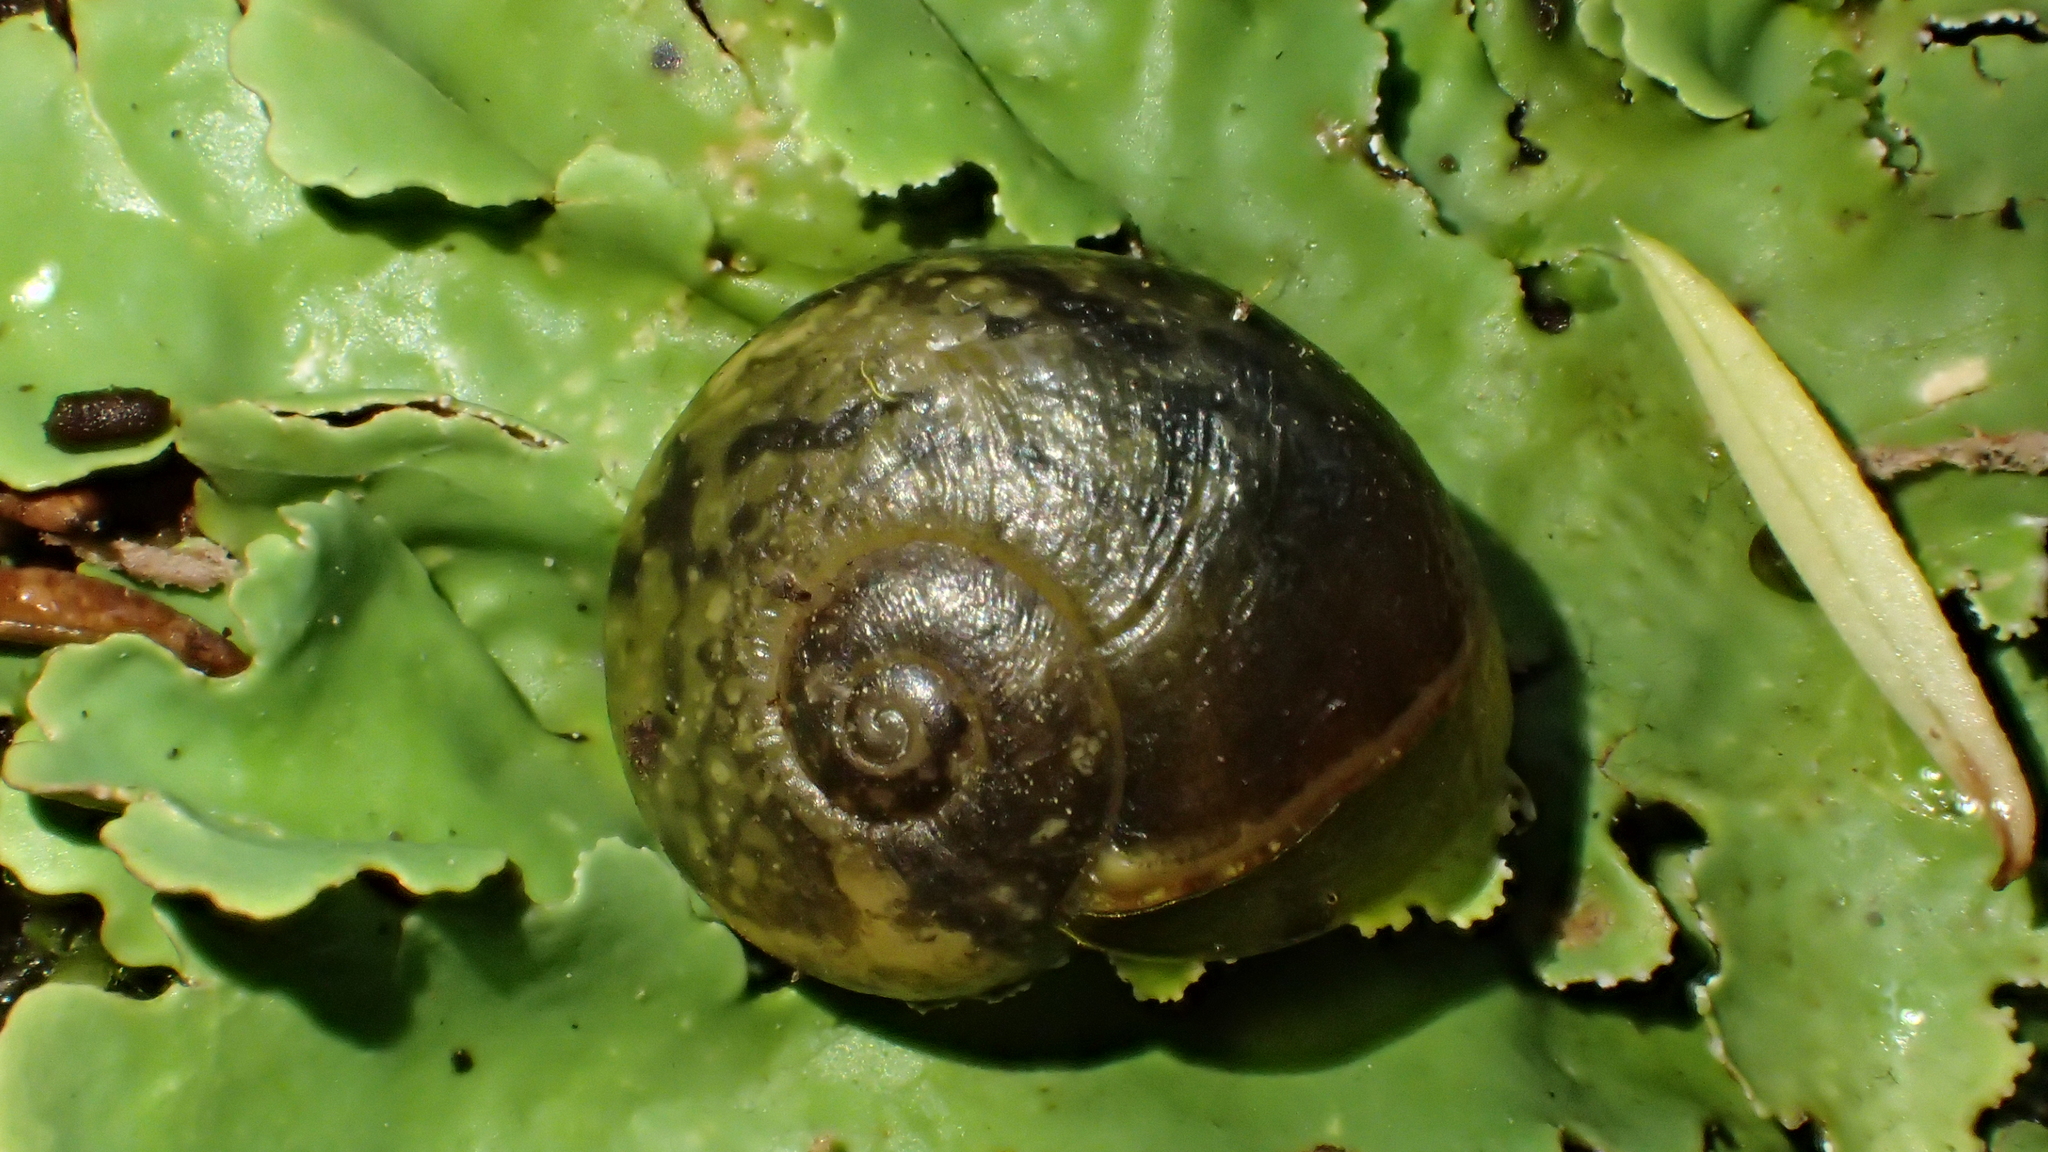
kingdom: Animalia
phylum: Mollusca
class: Gastropoda
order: Stylommatophora
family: Rhytididae
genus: Rhytida
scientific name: Rhytida australis
